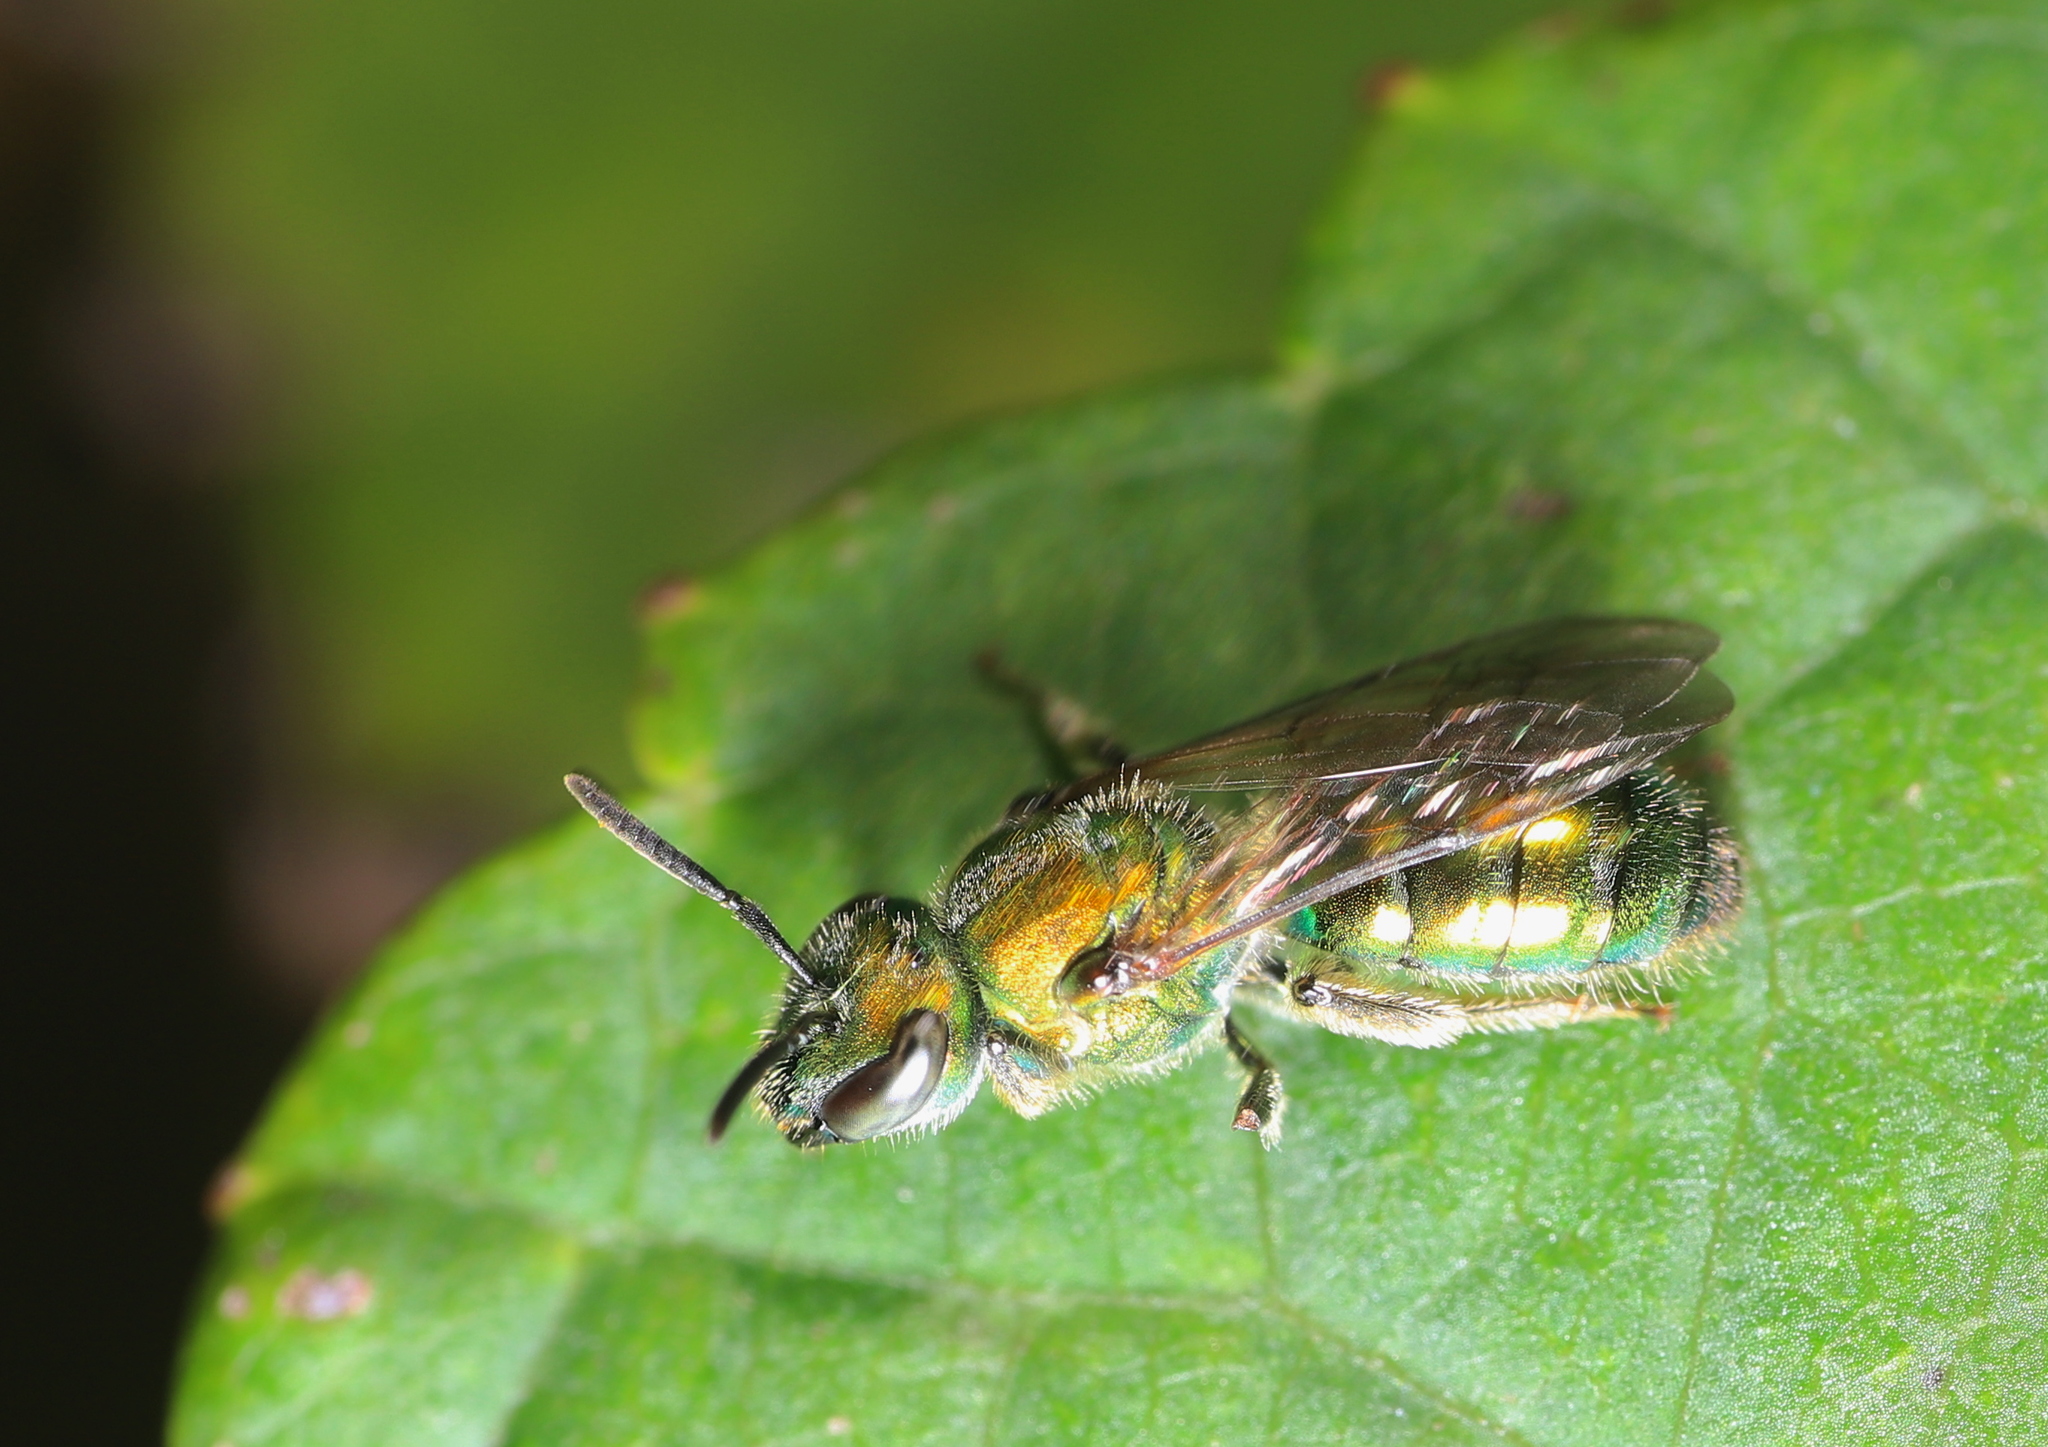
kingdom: Animalia
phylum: Arthropoda
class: Insecta
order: Hymenoptera
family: Halictidae
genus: Augochlora
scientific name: Augochlora pura
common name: Pure green sweat bee
